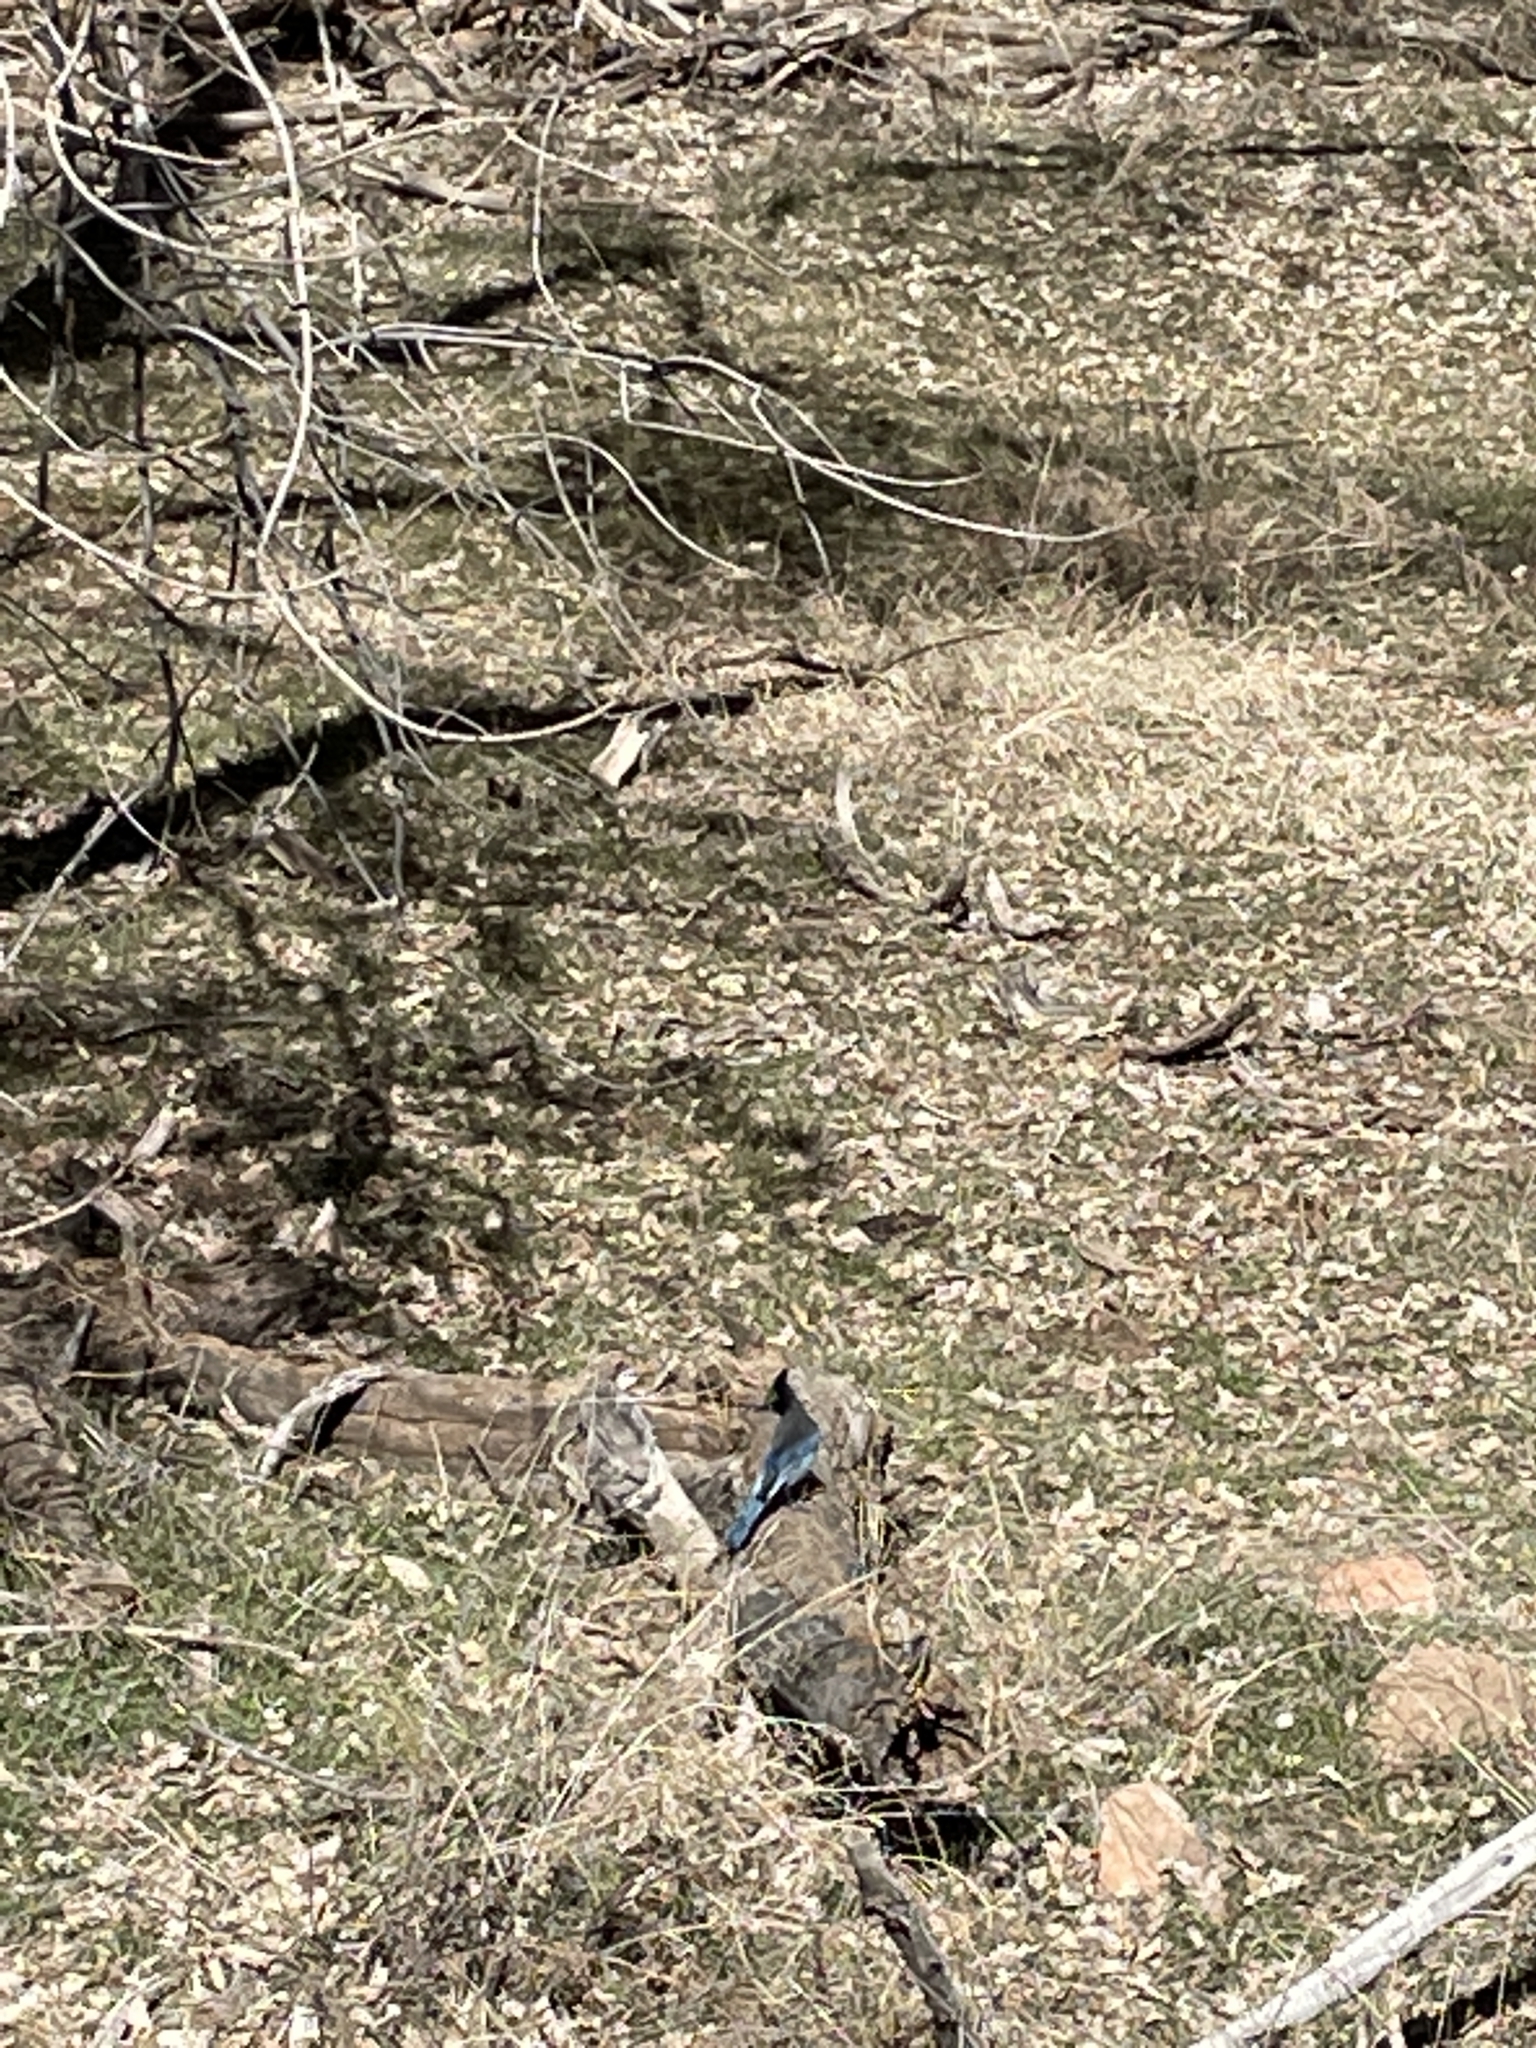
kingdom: Animalia
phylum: Chordata
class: Aves
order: Passeriformes
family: Corvidae
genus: Cyanocitta
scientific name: Cyanocitta stelleri
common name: Steller's jay
